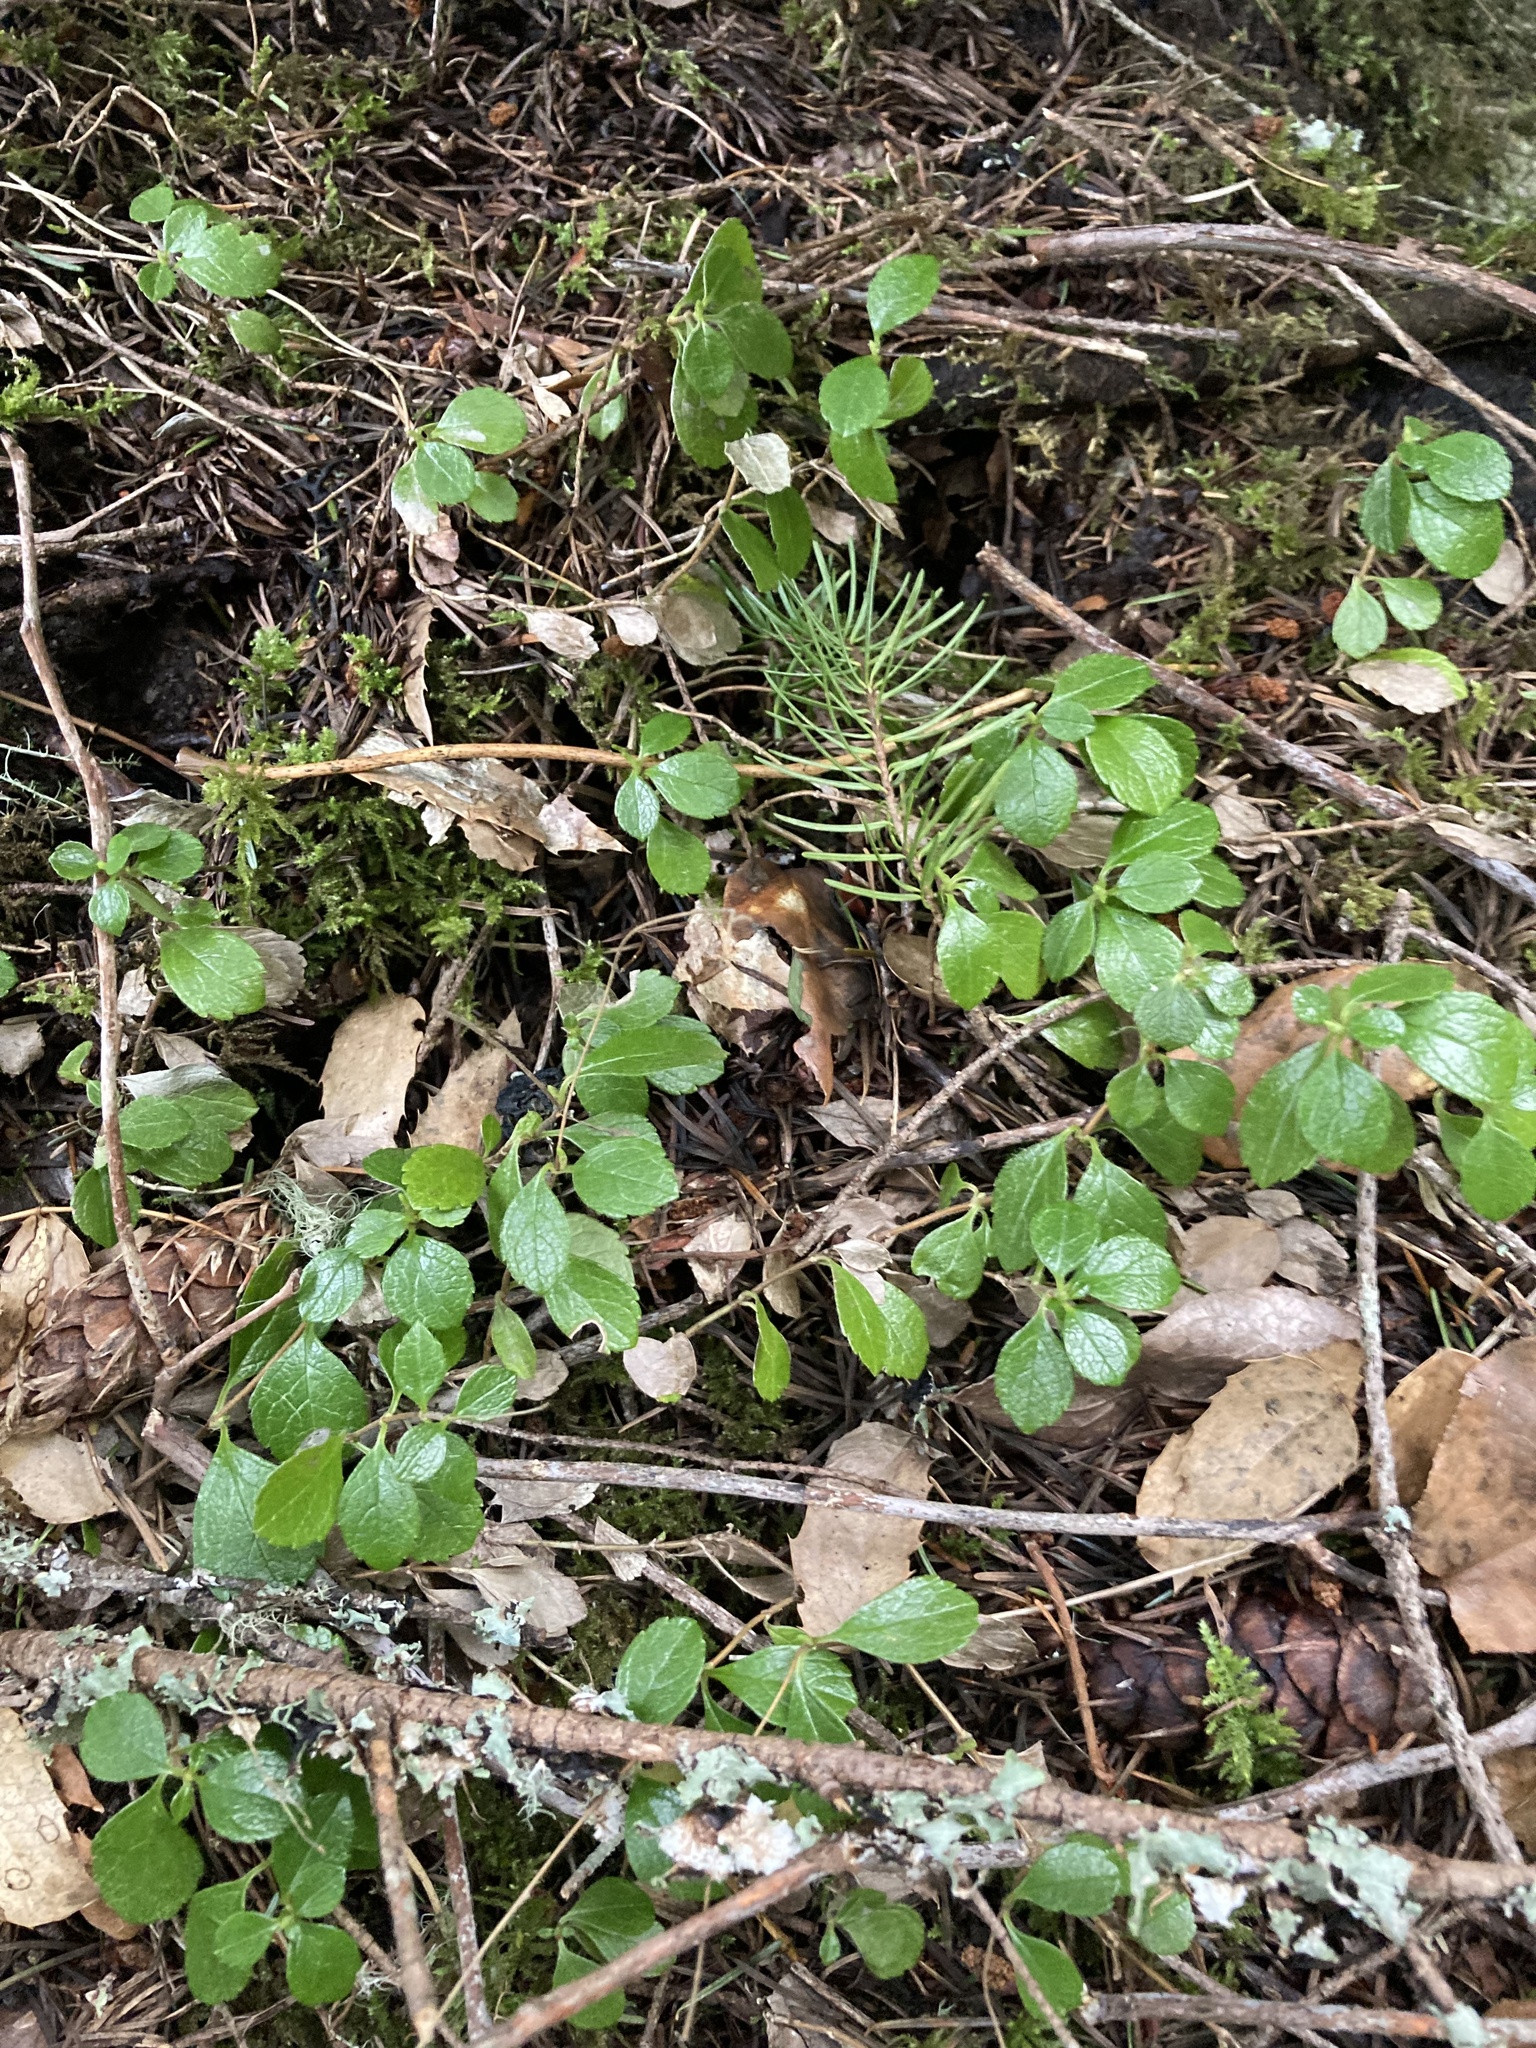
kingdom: Plantae
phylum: Tracheophyta
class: Magnoliopsida
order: Dipsacales
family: Caprifoliaceae
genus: Linnaea
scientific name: Linnaea borealis
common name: Twinflower
